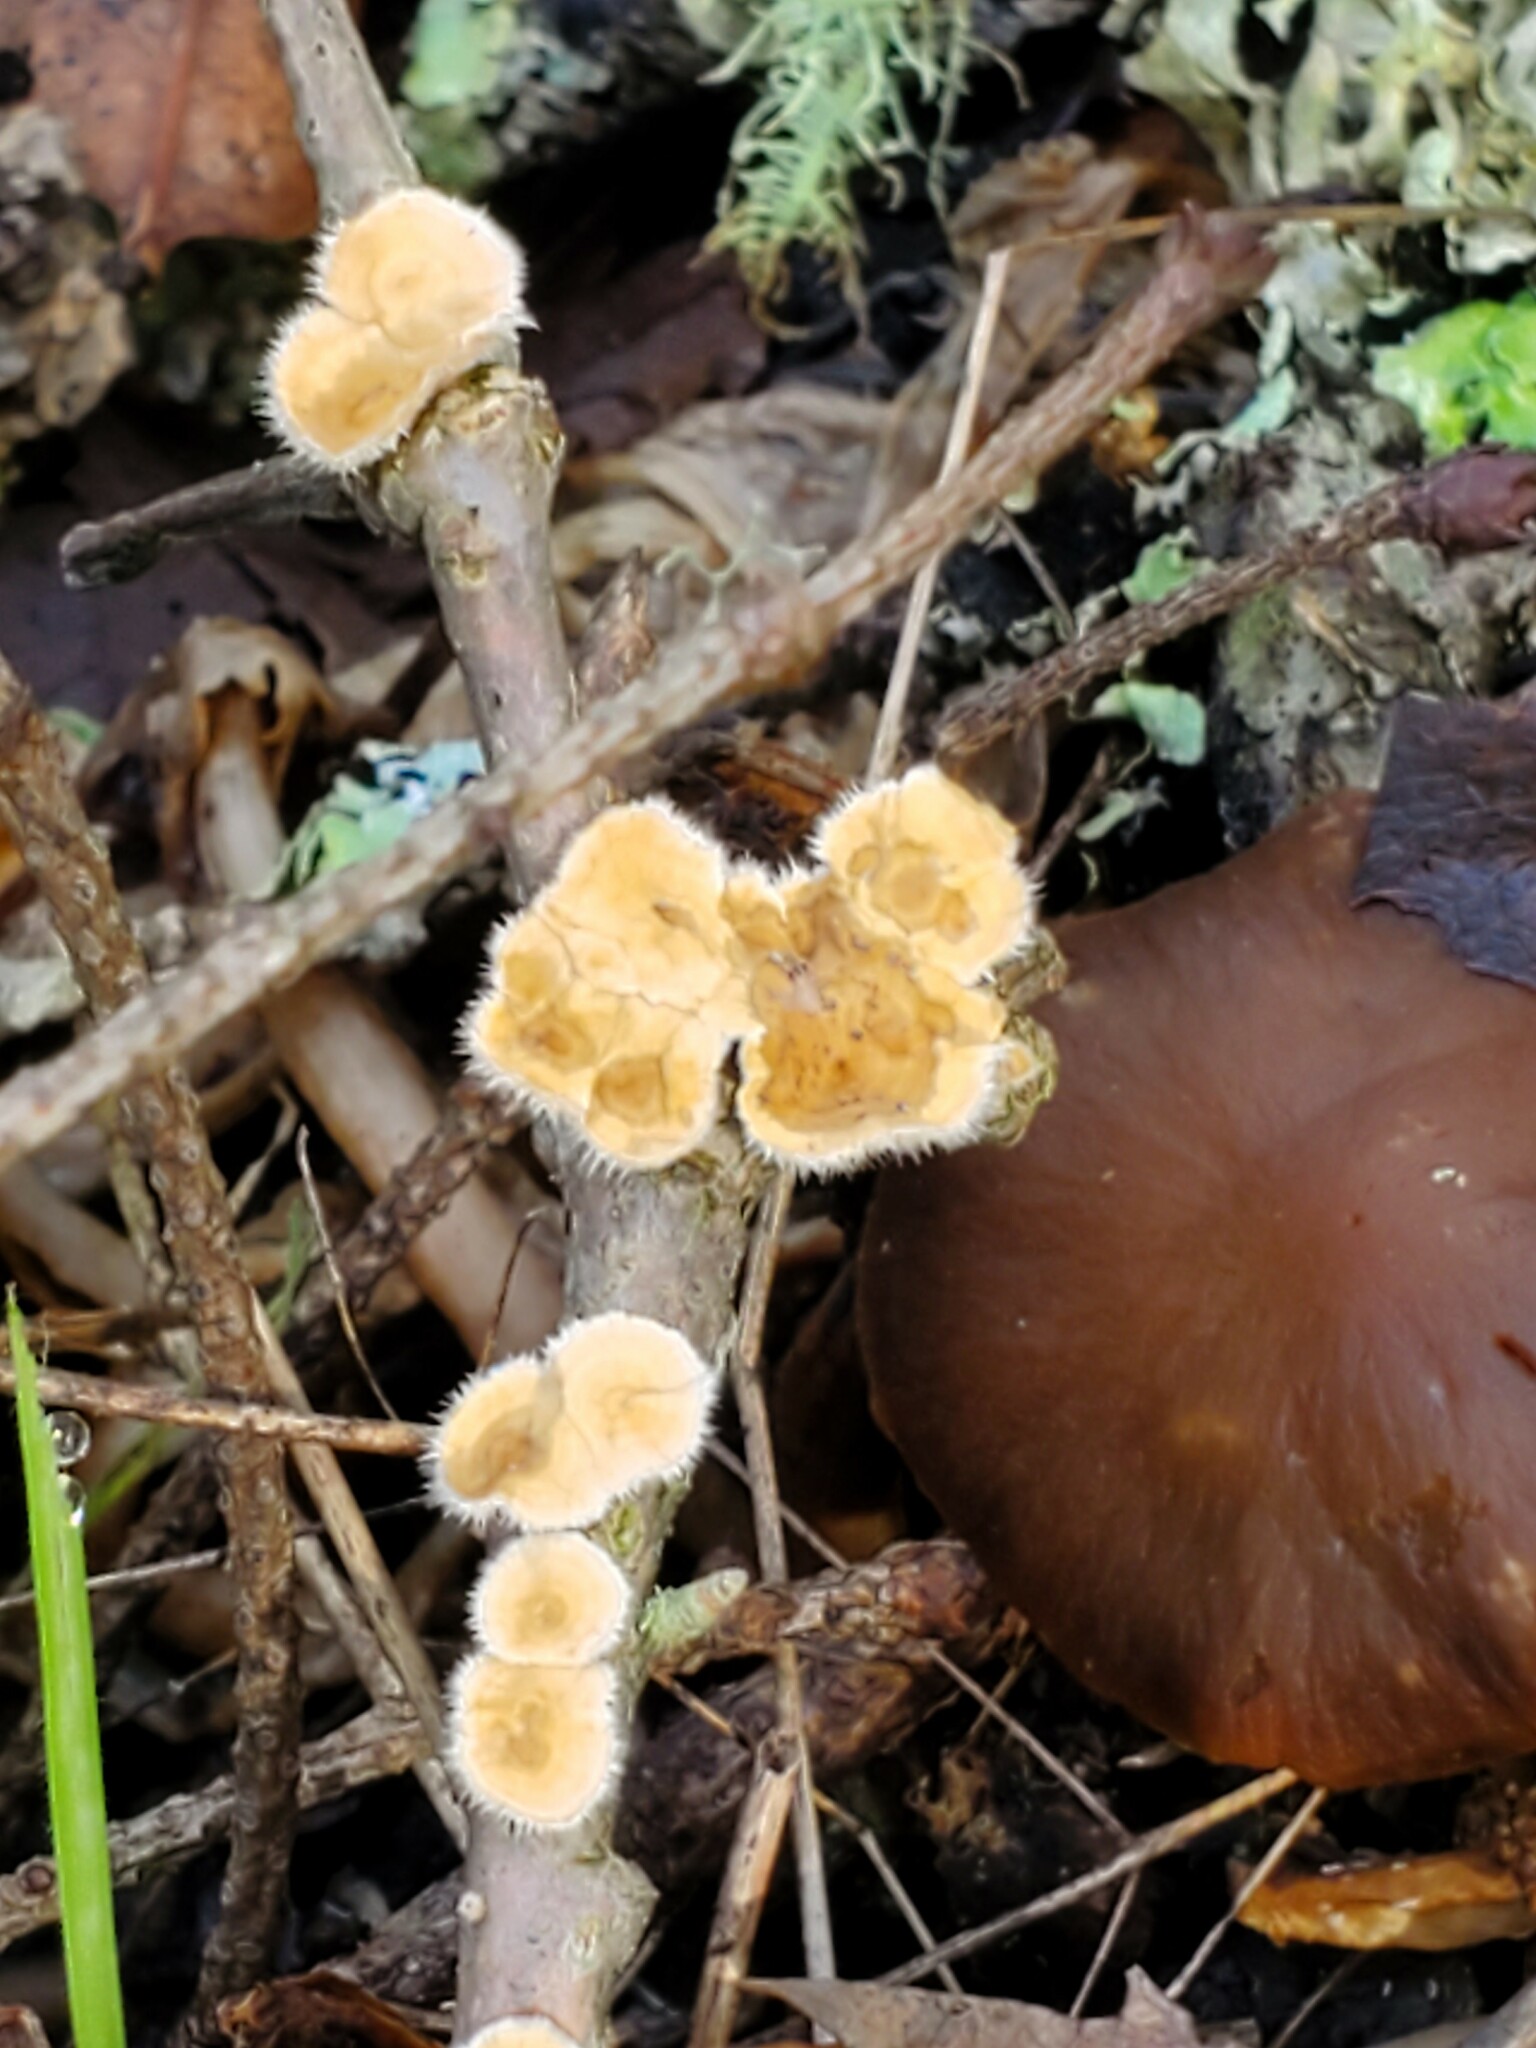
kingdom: Fungi
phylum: Basidiomycota
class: Agaricomycetes
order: Russulales
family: Stereaceae
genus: Stereum
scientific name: Stereum ochraceoflavum
